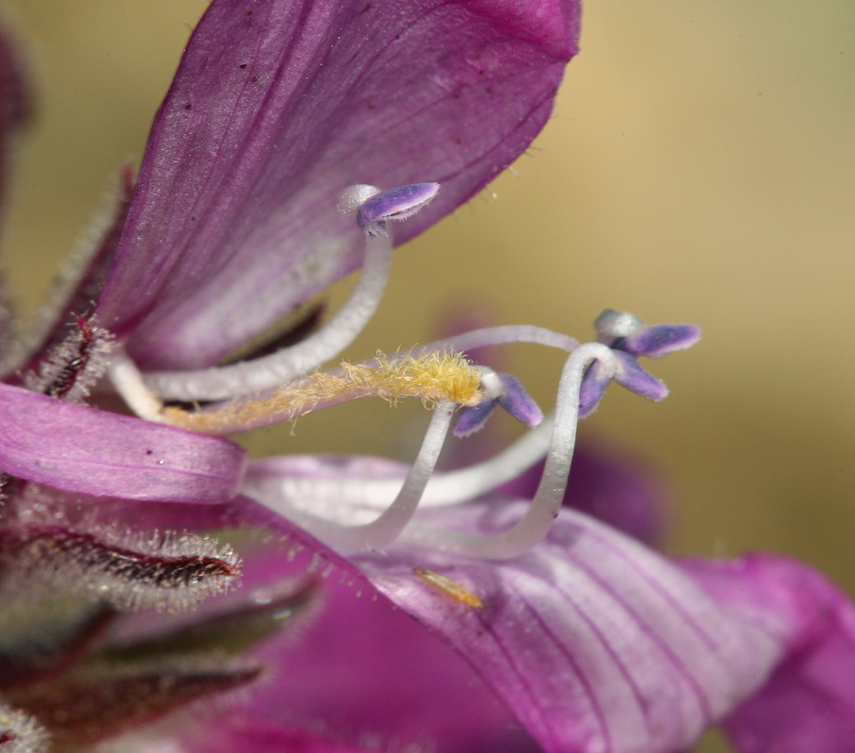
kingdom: Plantae
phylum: Tracheophyta
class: Magnoliopsida
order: Lamiales
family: Plantaginaceae
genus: Penstemon
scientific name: Penstemon monoensis
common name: Mono penstemon
